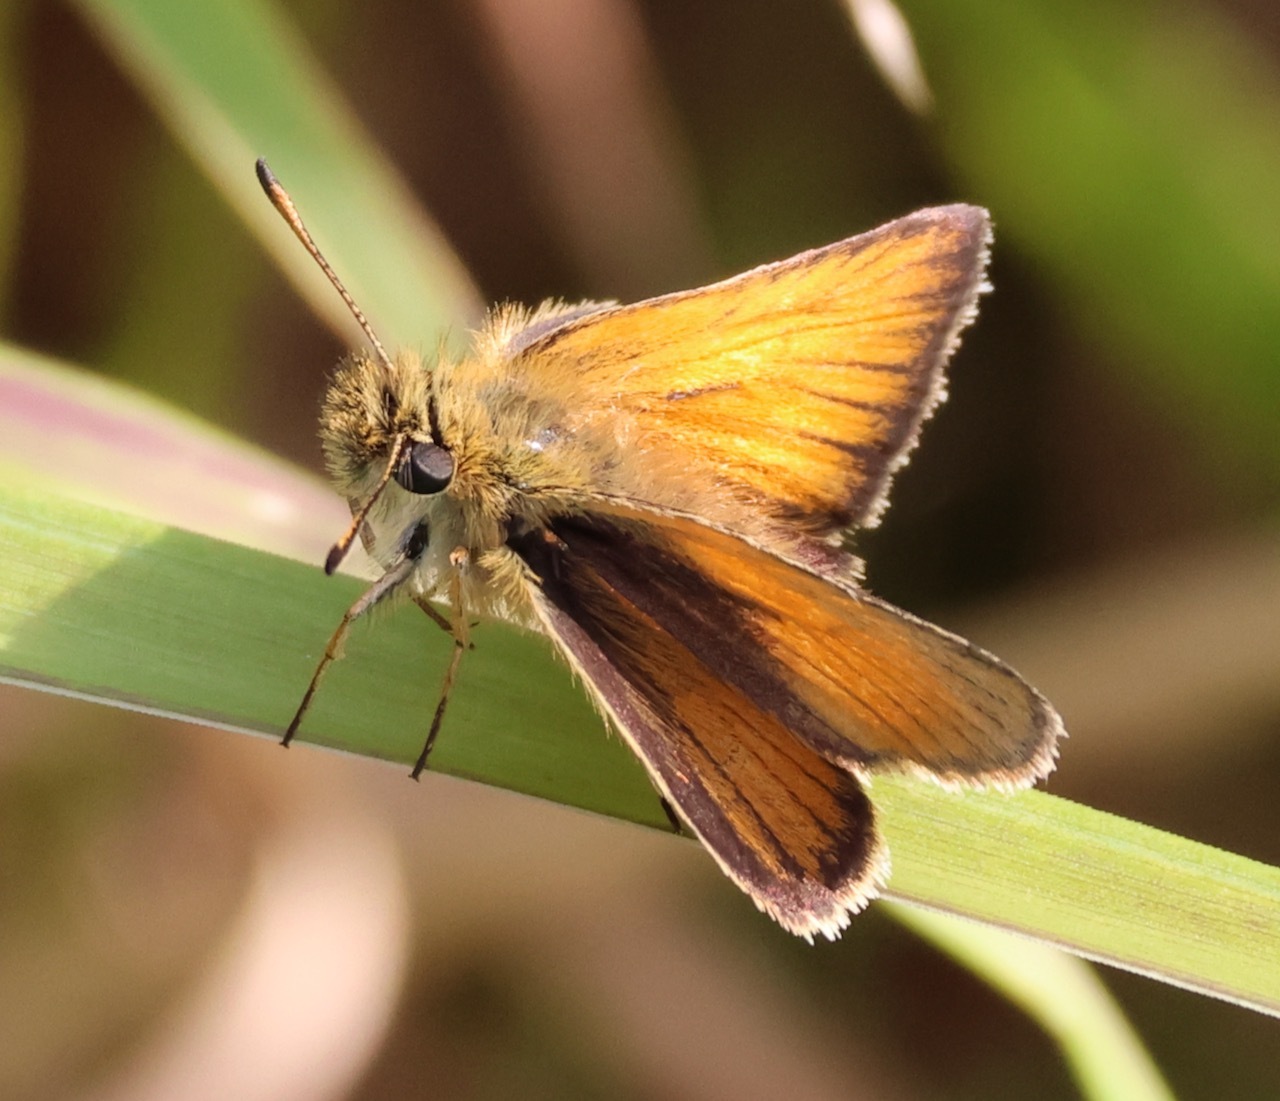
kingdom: Animalia
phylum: Arthropoda
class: Insecta
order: Lepidoptera
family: Hesperiidae
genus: Thymelicus
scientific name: Thymelicus lineola
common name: Essex skipper
